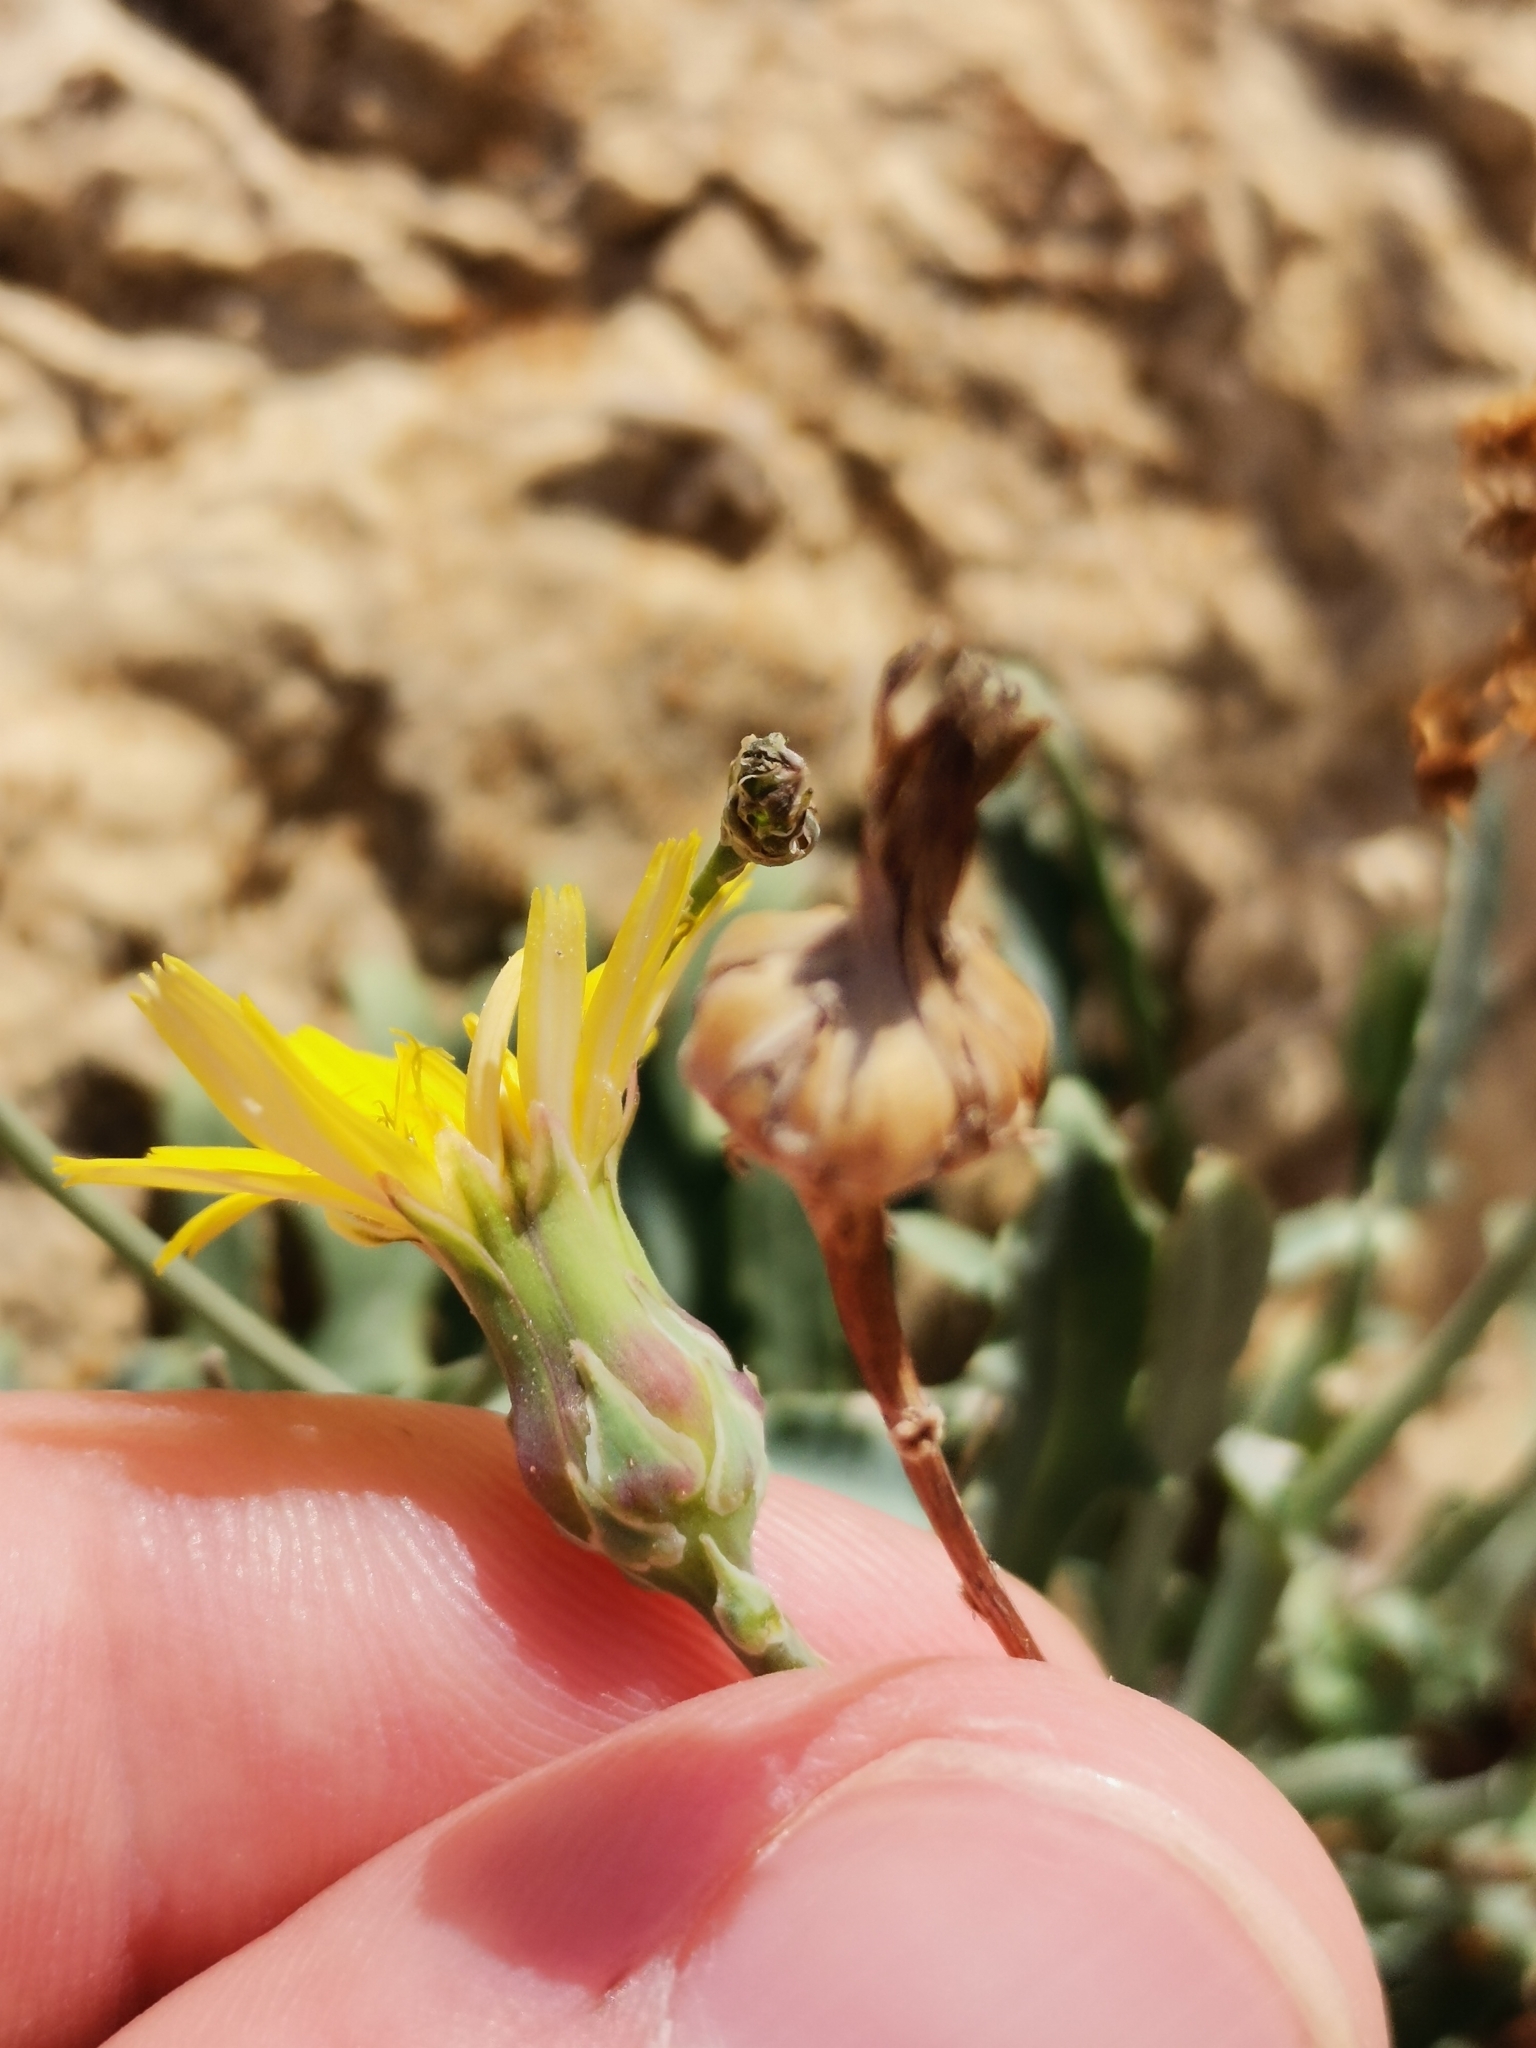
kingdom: Plantae
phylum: Tracheophyta
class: Magnoliopsida
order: Asterales
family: Asteraceae
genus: Reichardia
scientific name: Reichardia picroides
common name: Common brighteyes
